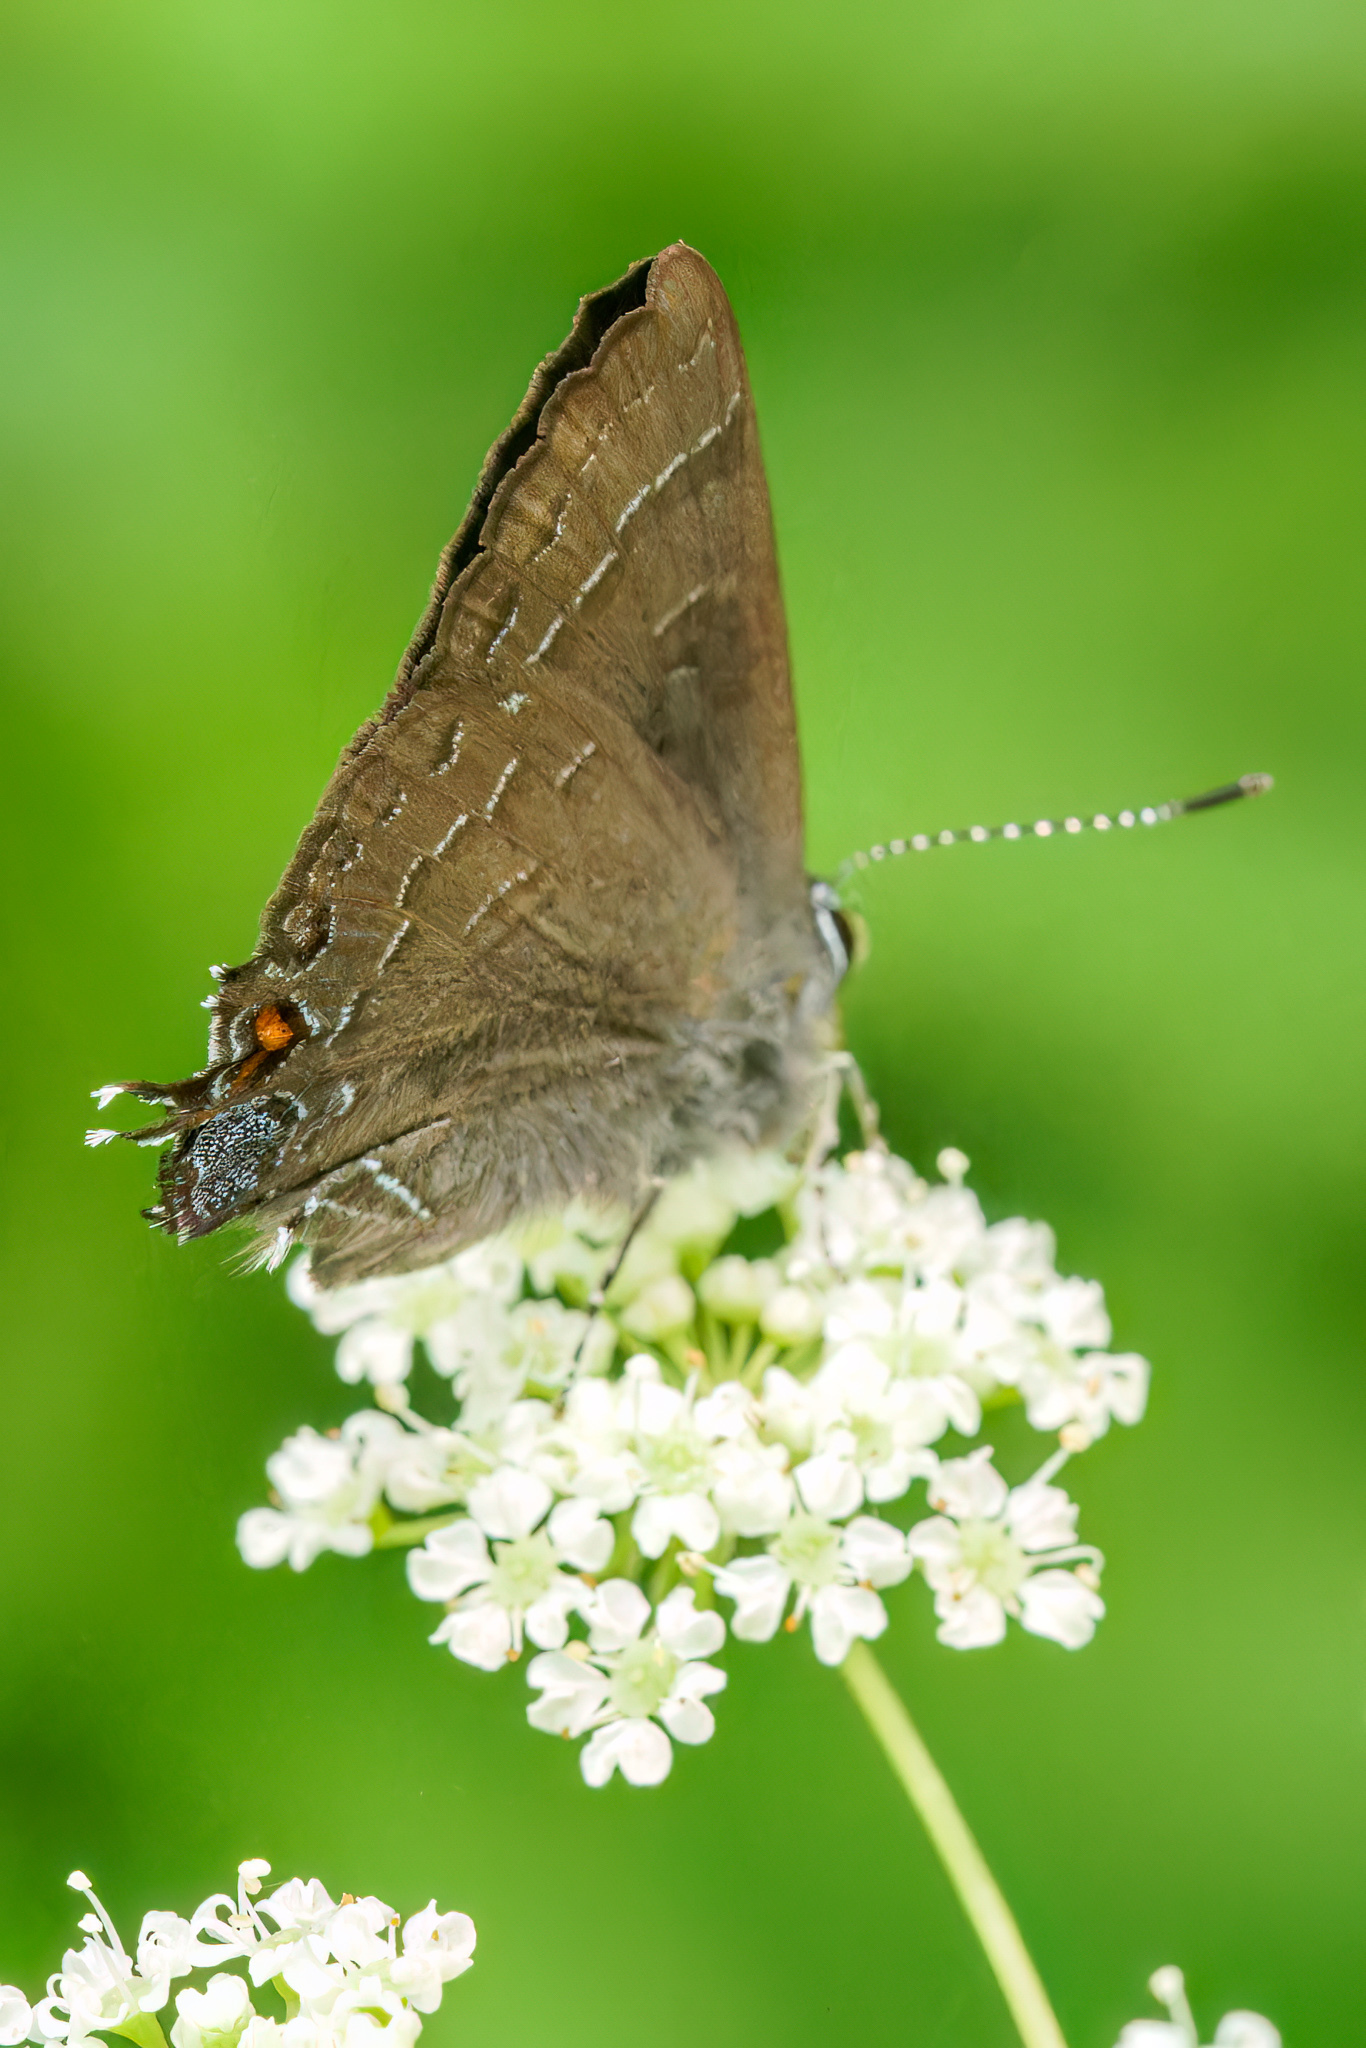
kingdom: Animalia
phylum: Arthropoda
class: Insecta
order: Lepidoptera
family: Lycaenidae
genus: Satyrium
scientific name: Satyrium calanus
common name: Banded hairstreak
